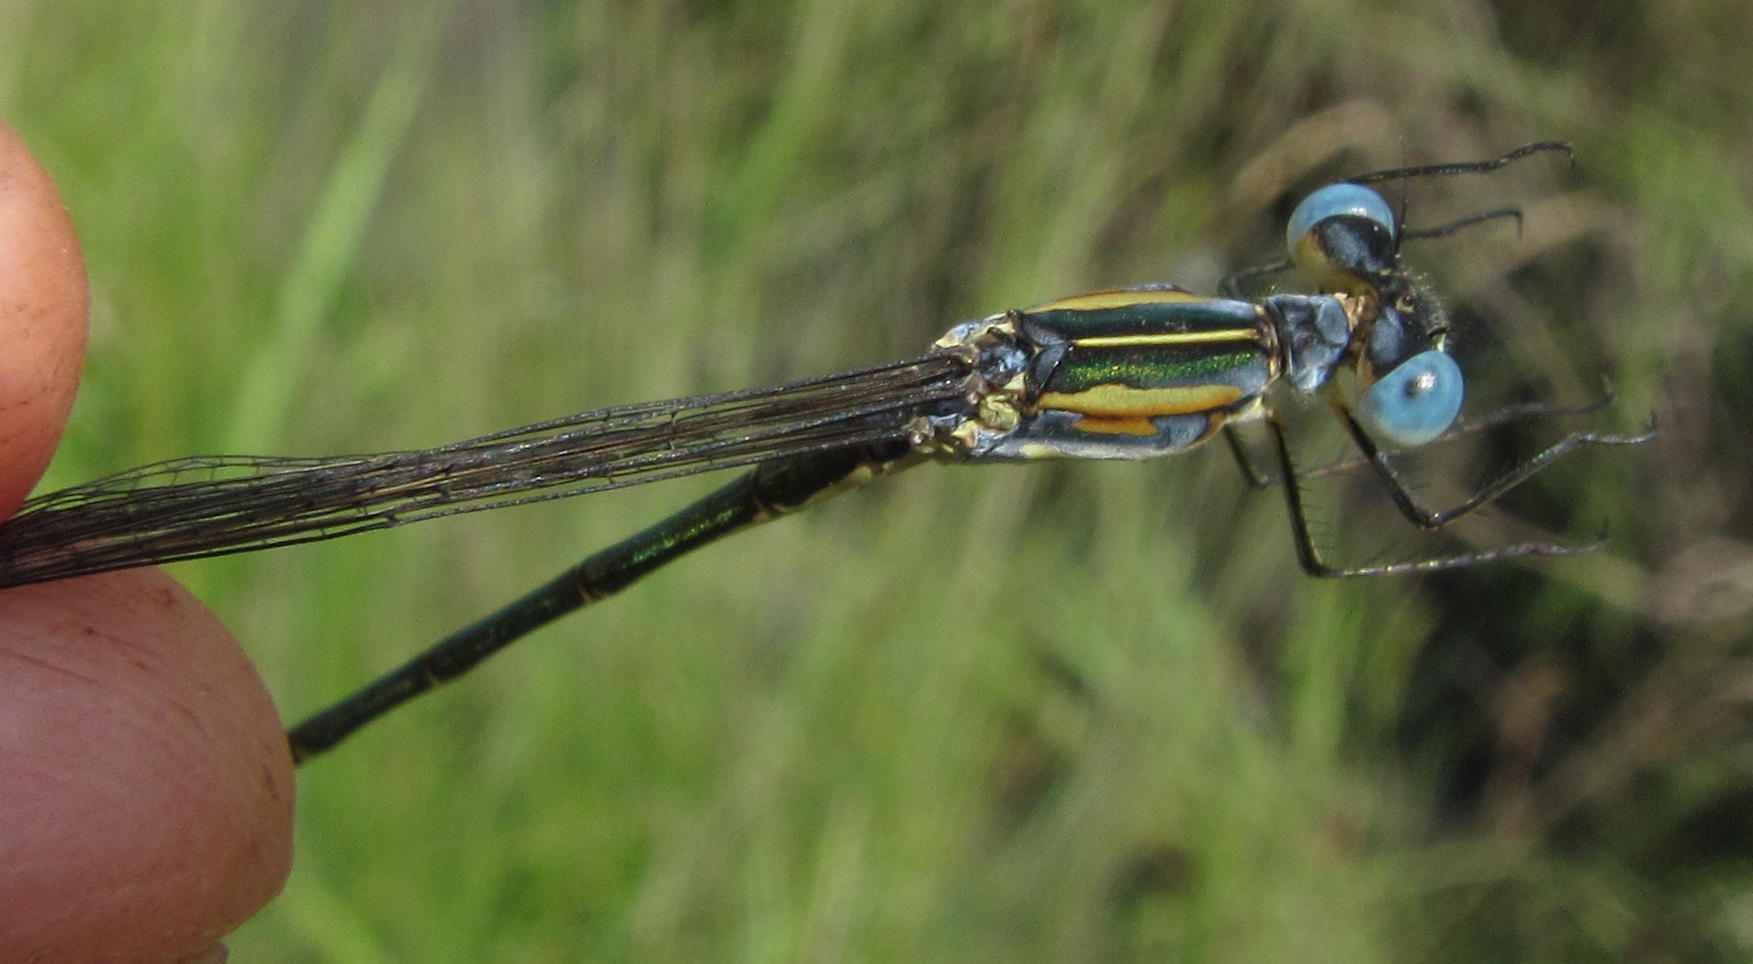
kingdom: Animalia
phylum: Arthropoda
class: Insecta
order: Odonata
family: Lestidae
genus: Lestes
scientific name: Lestes plagiatus
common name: Highland spreadwing
